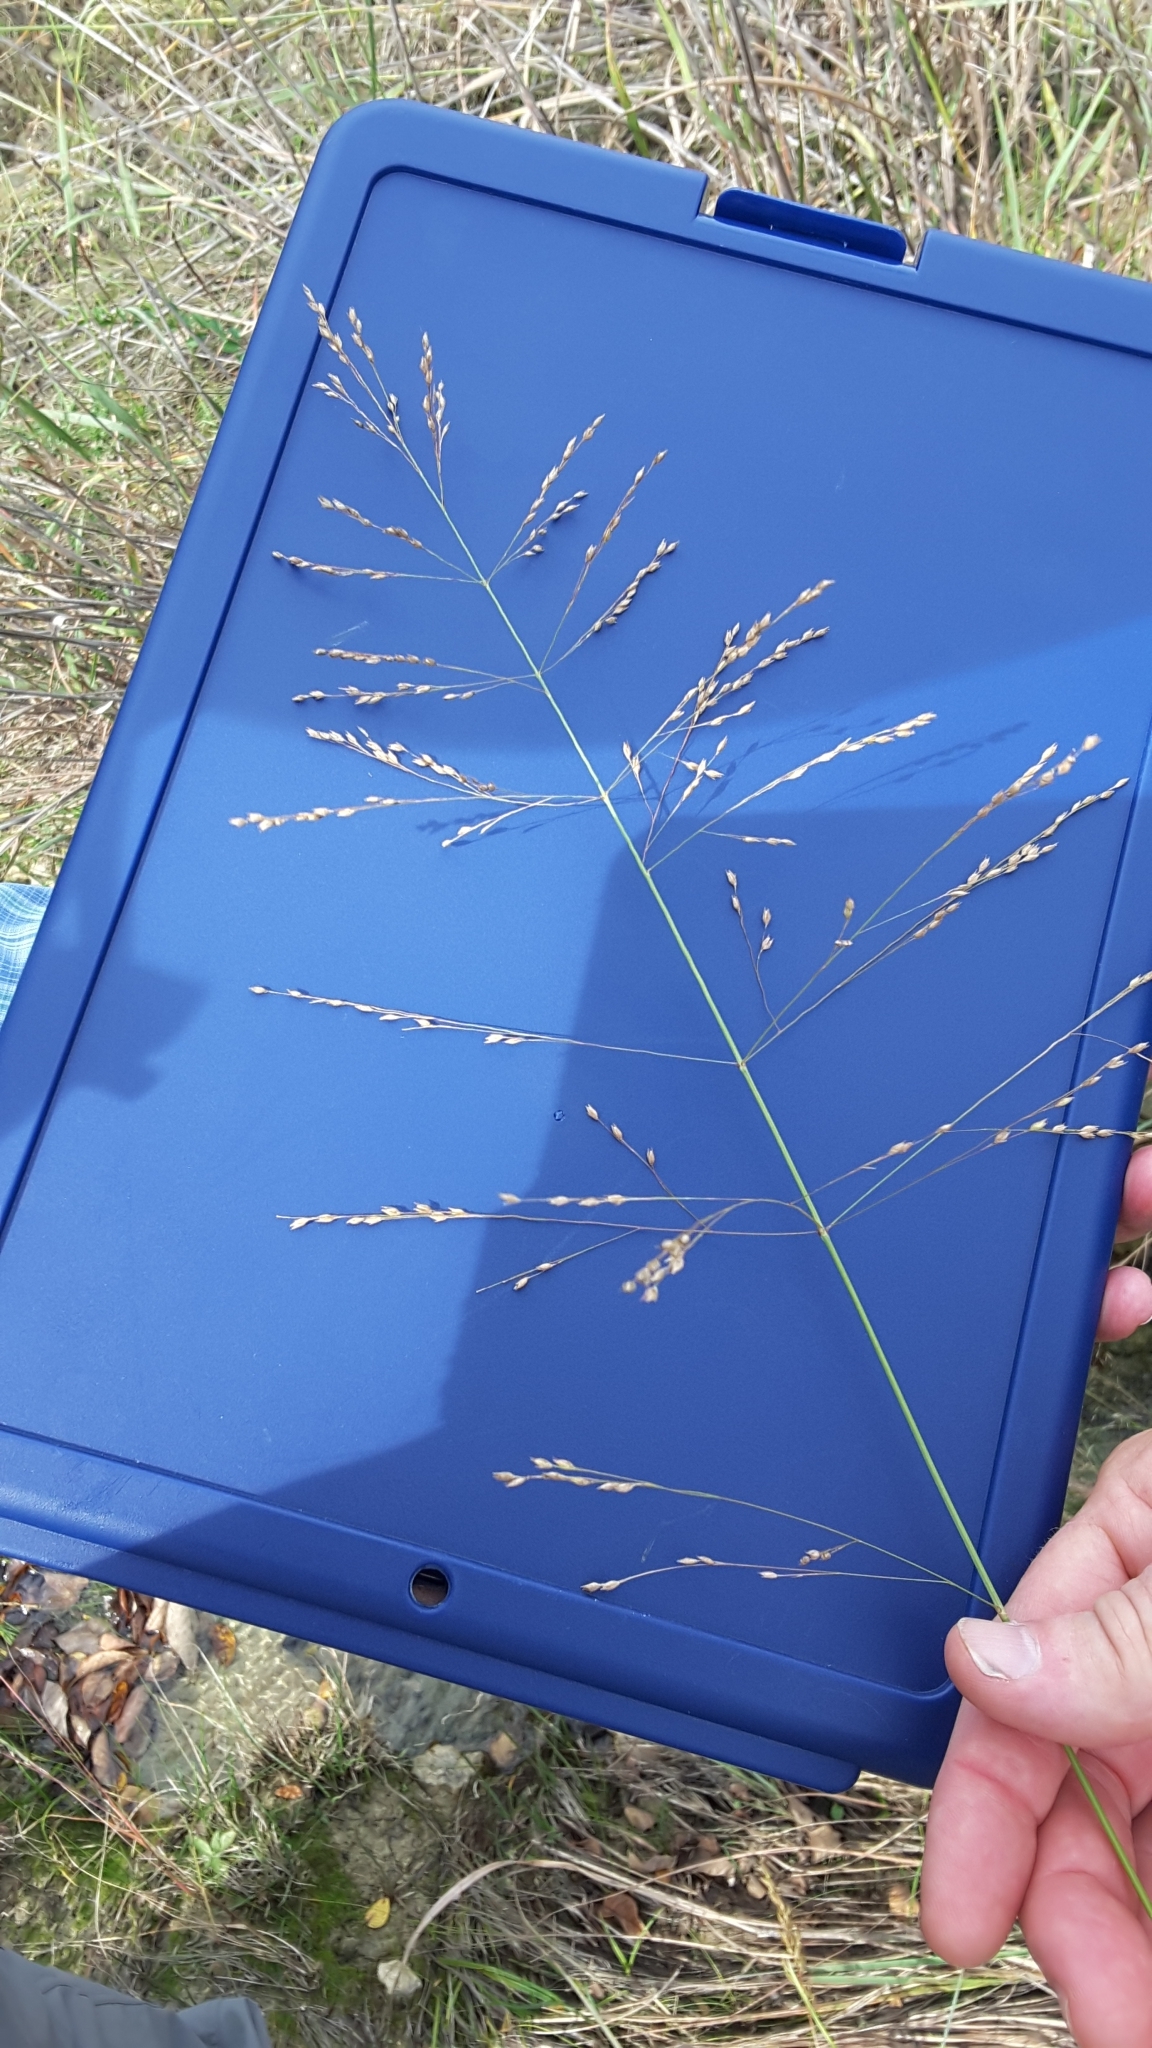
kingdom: Plantae
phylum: Tracheophyta
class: Liliopsida
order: Poales
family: Poaceae
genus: Panicum
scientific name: Panicum virgatum
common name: Switchgrass
